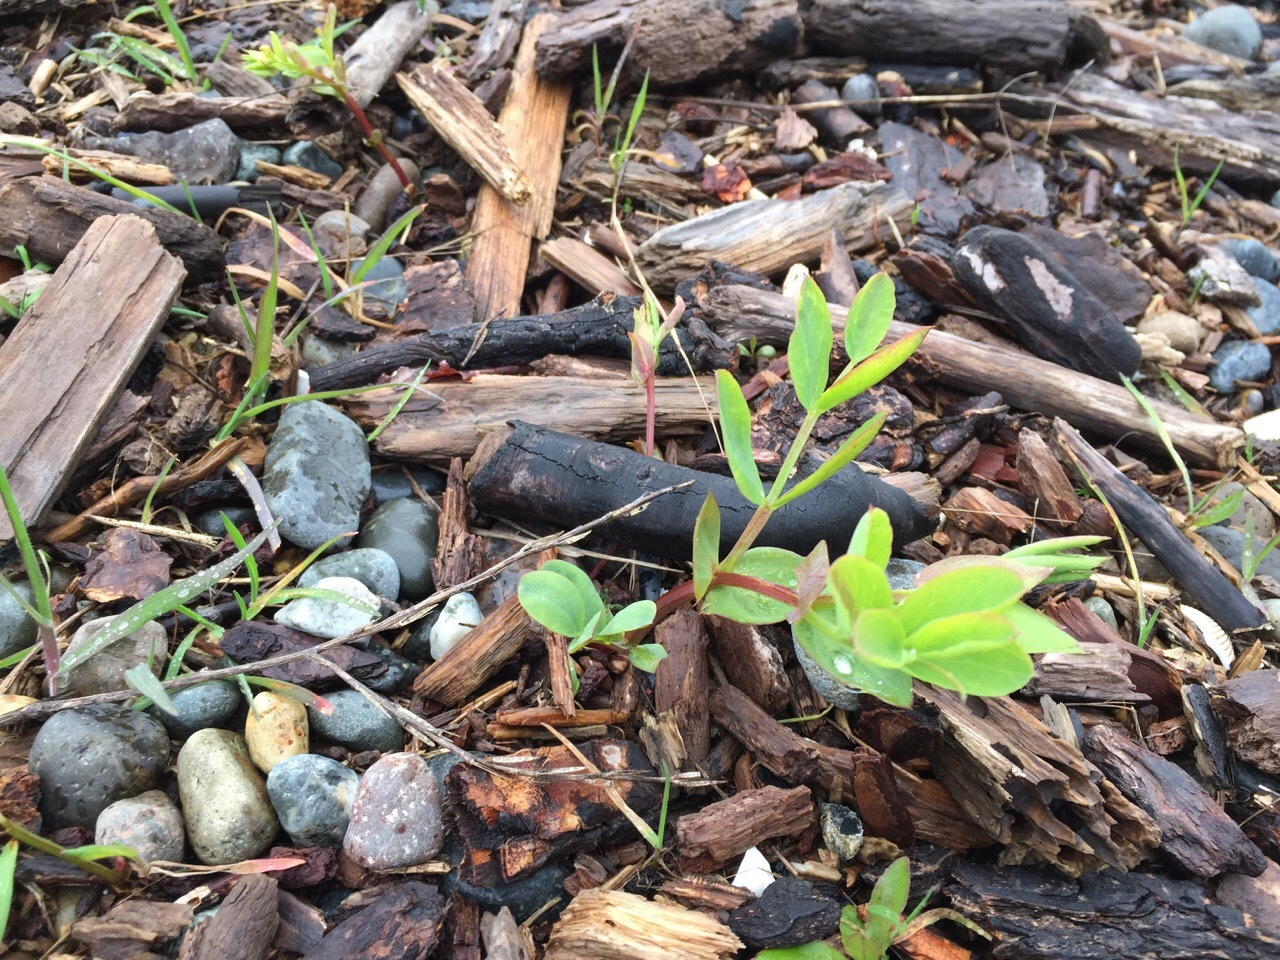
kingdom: Plantae
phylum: Tracheophyta
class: Magnoliopsida
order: Fabales
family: Fabaceae
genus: Lathyrus
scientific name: Lathyrus japonicus
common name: Sea pea
